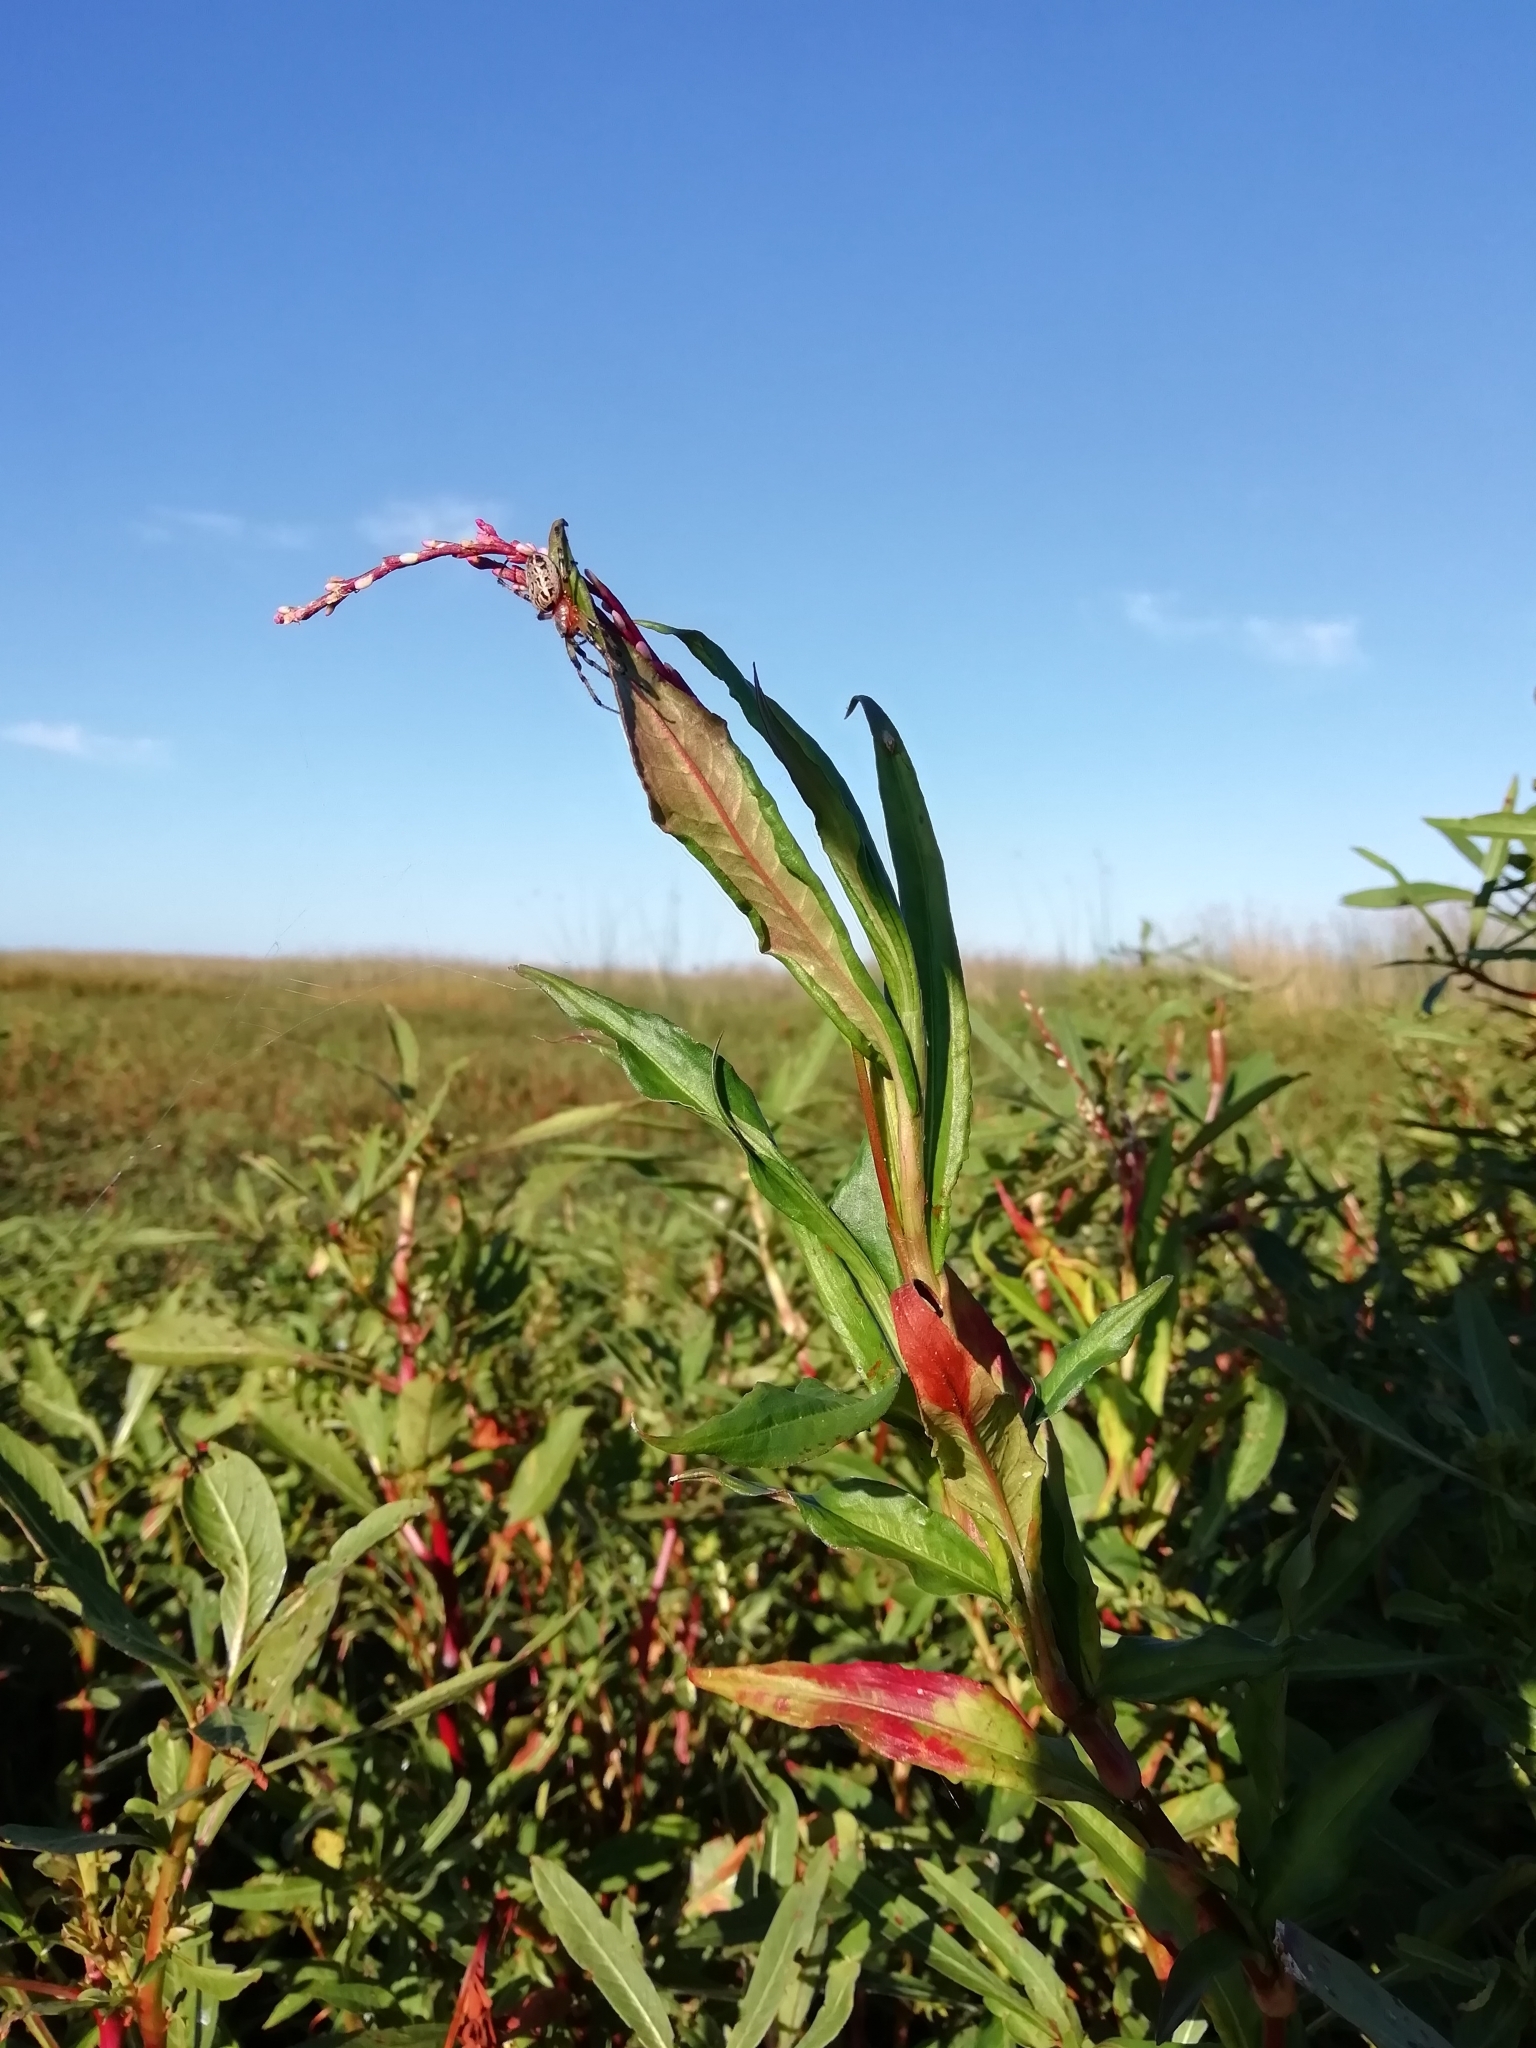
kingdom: Animalia
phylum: Arthropoda
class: Arachnida
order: Araneae
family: Araneidae
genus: Alpaida
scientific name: Alpaida veniliae
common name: Orb weavers
